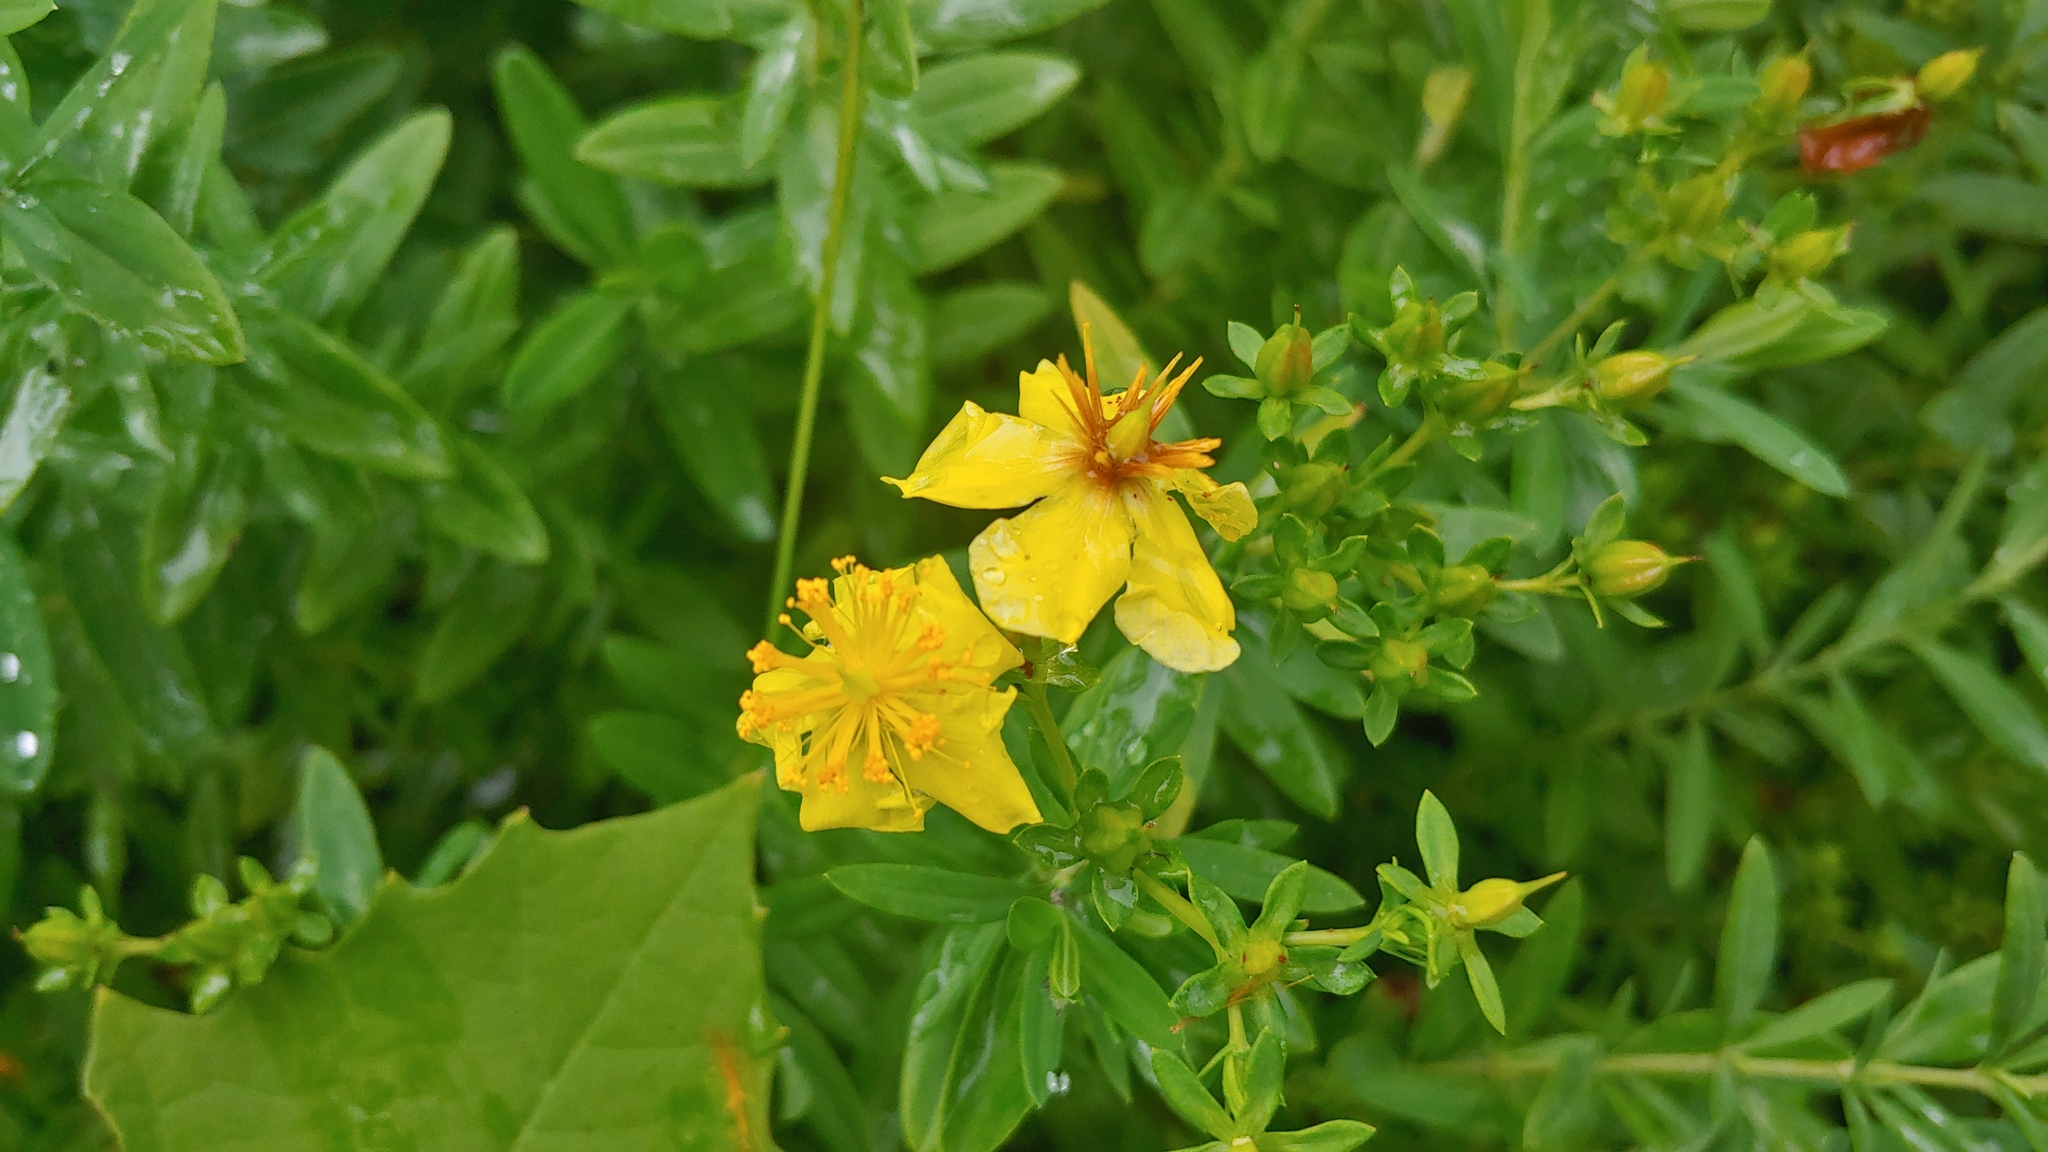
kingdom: Plantae
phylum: Tracheophyta
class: Magnoliopsida
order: Malpighiales
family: Hypericaceae
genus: Hypericum
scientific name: Hypericum swinkianum
